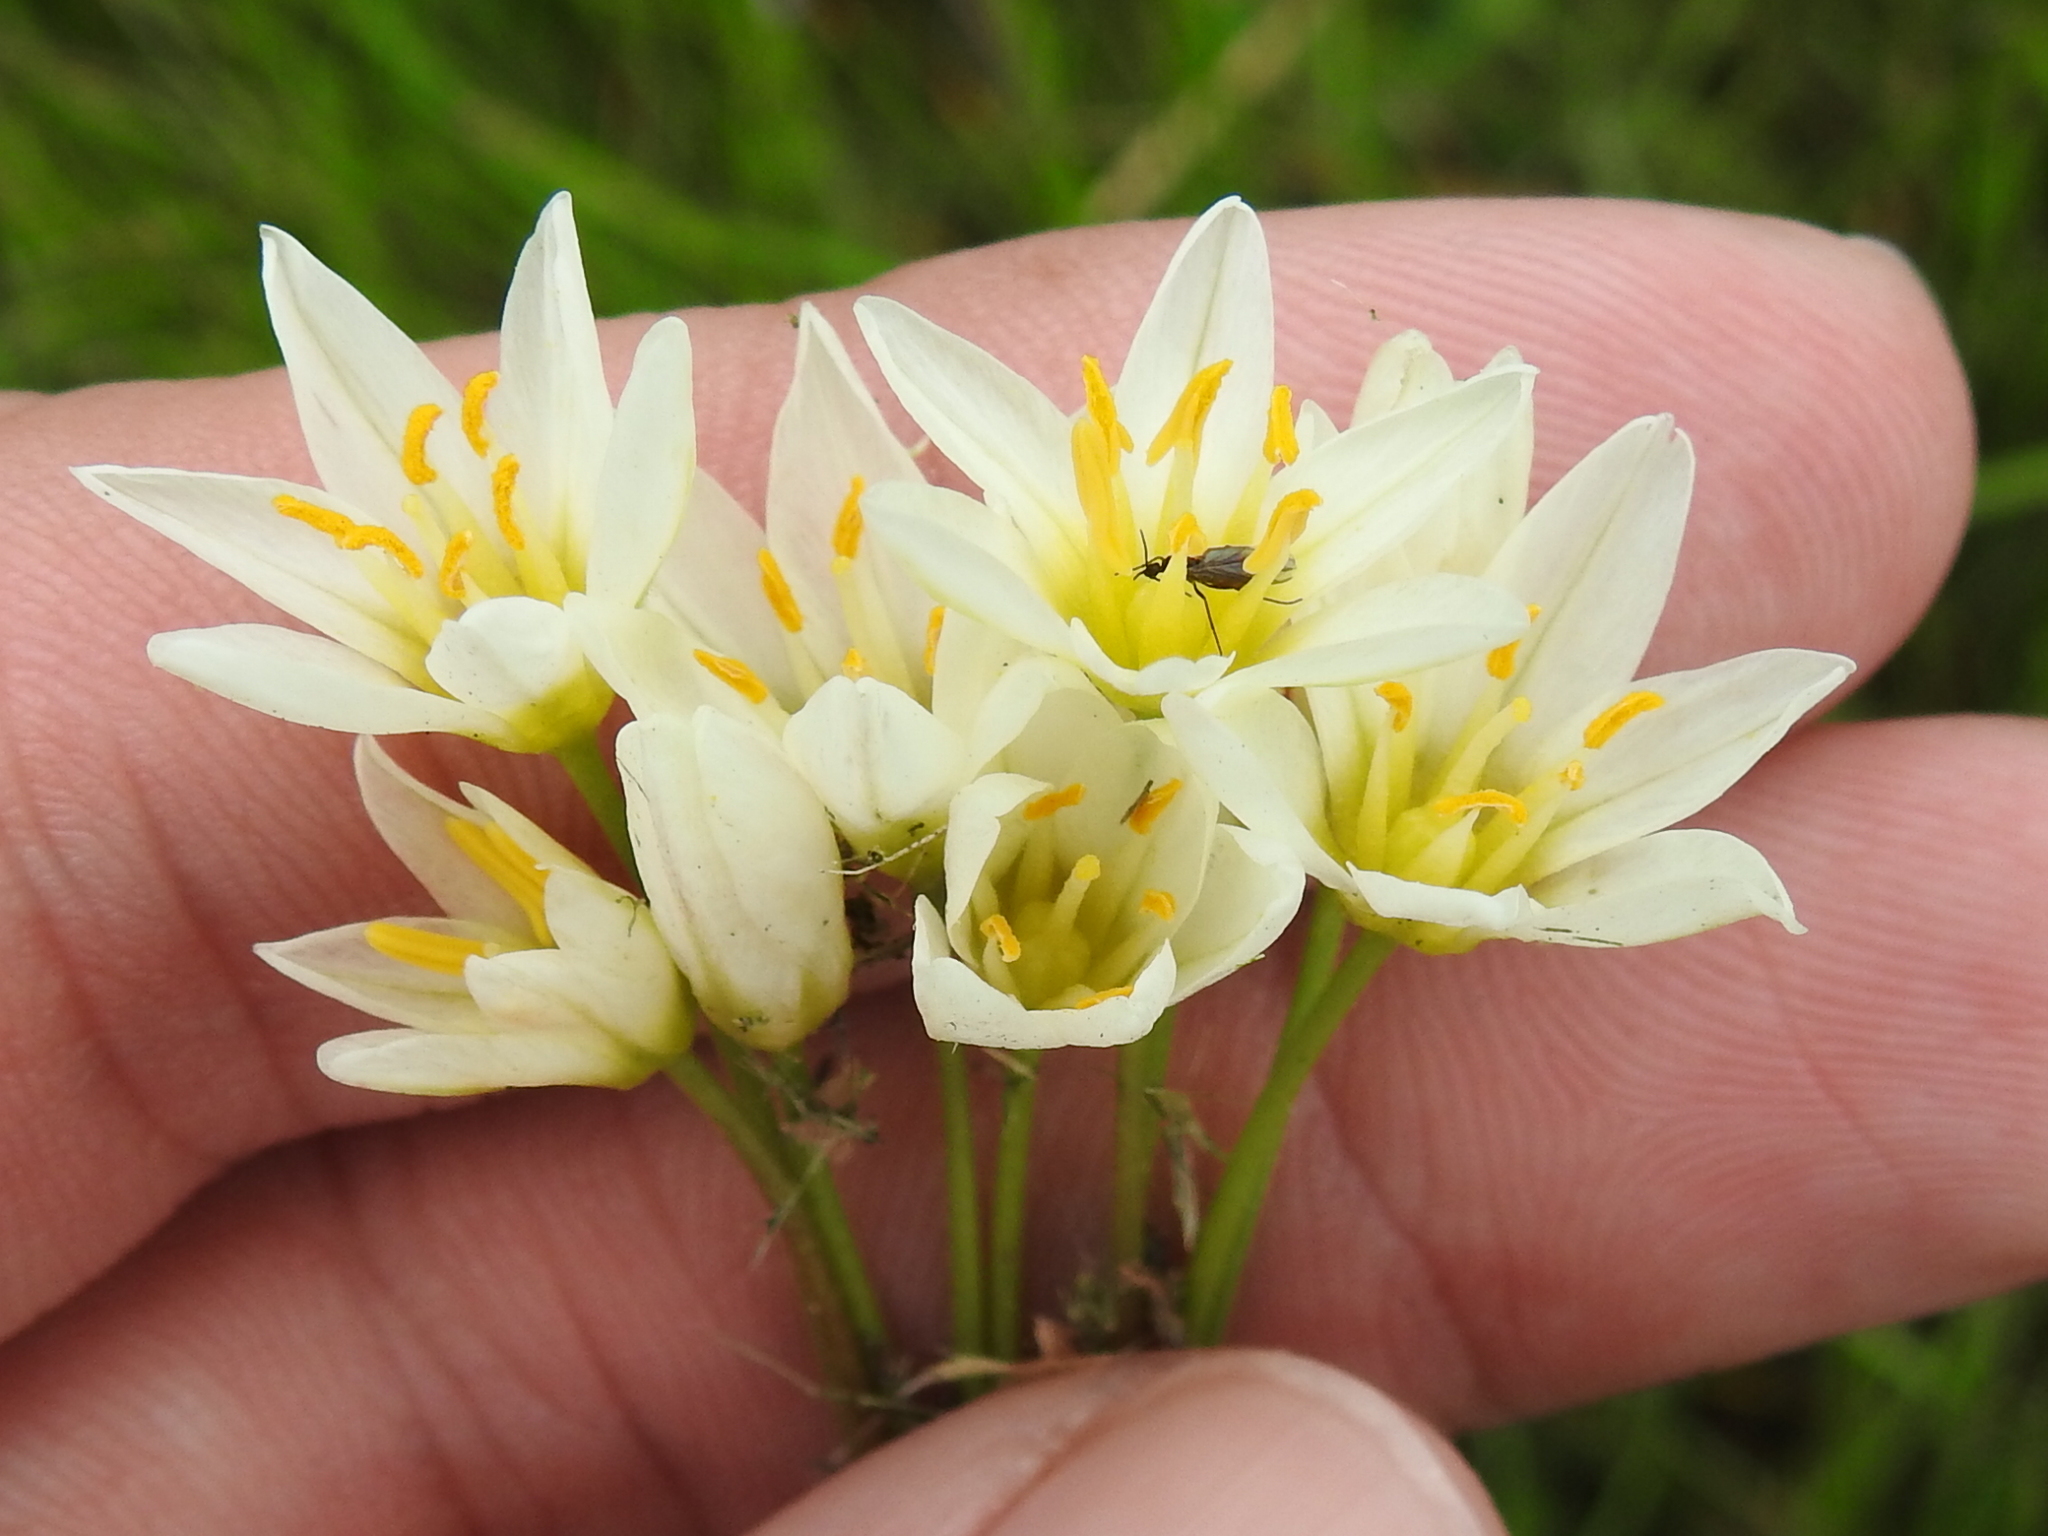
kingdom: Plantae
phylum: Tracheophyta
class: Liliopsida
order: Asparagales
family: Amaryllidaceae
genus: Nothoscordum
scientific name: Nothoscordum bivalve
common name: Crow-poison
